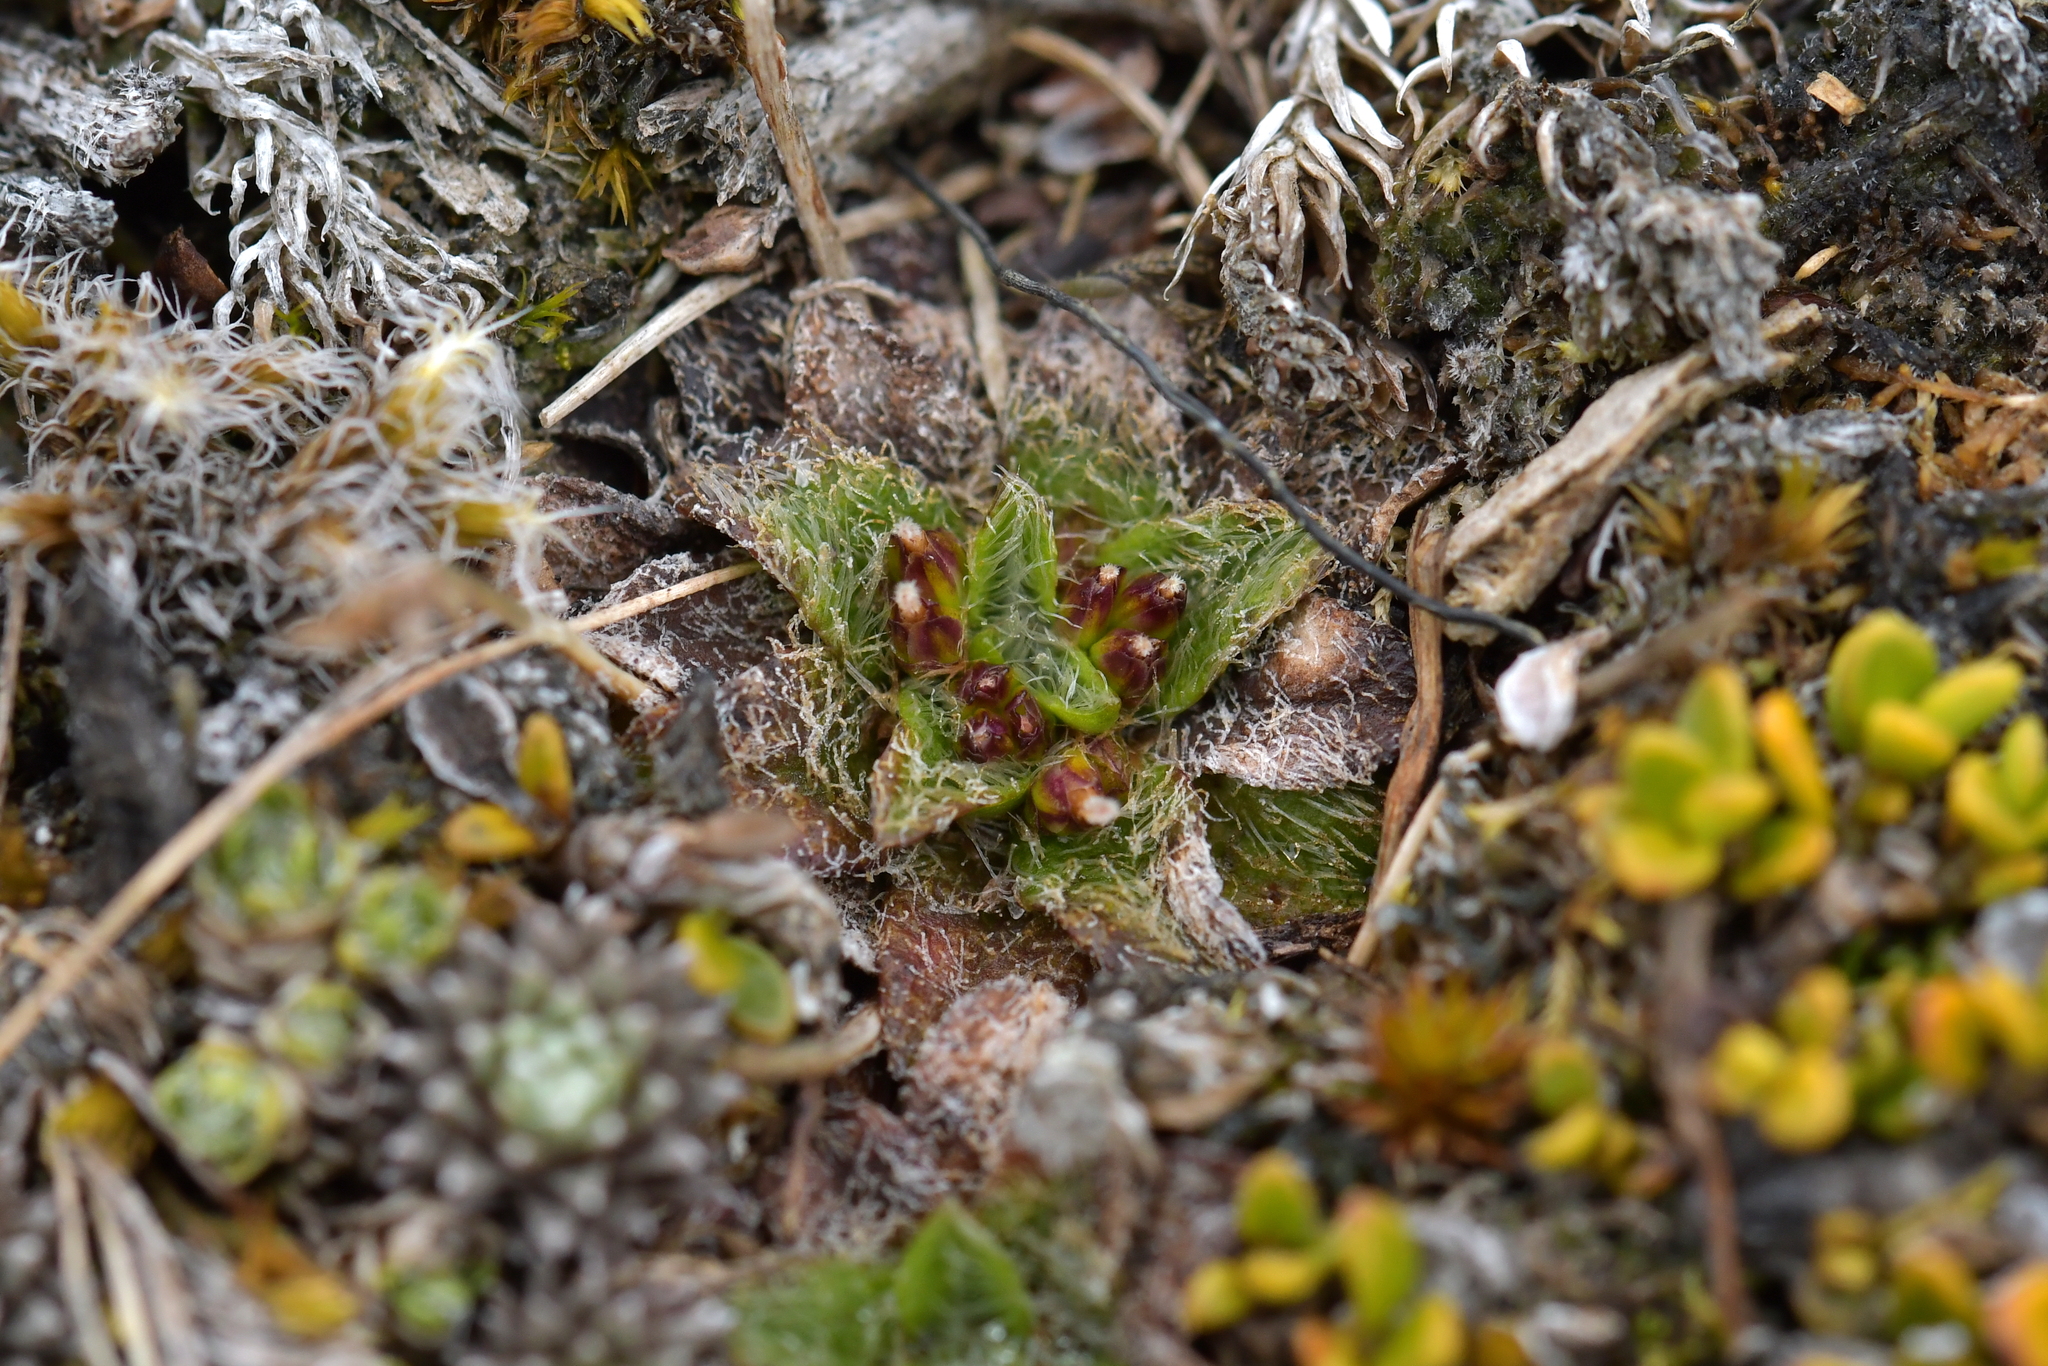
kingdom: Plantae
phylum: Tracheophyta
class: Magnoliopsida
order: Lamiales
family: Plantaginaceae
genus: Plantago
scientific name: Plantago lanigera
